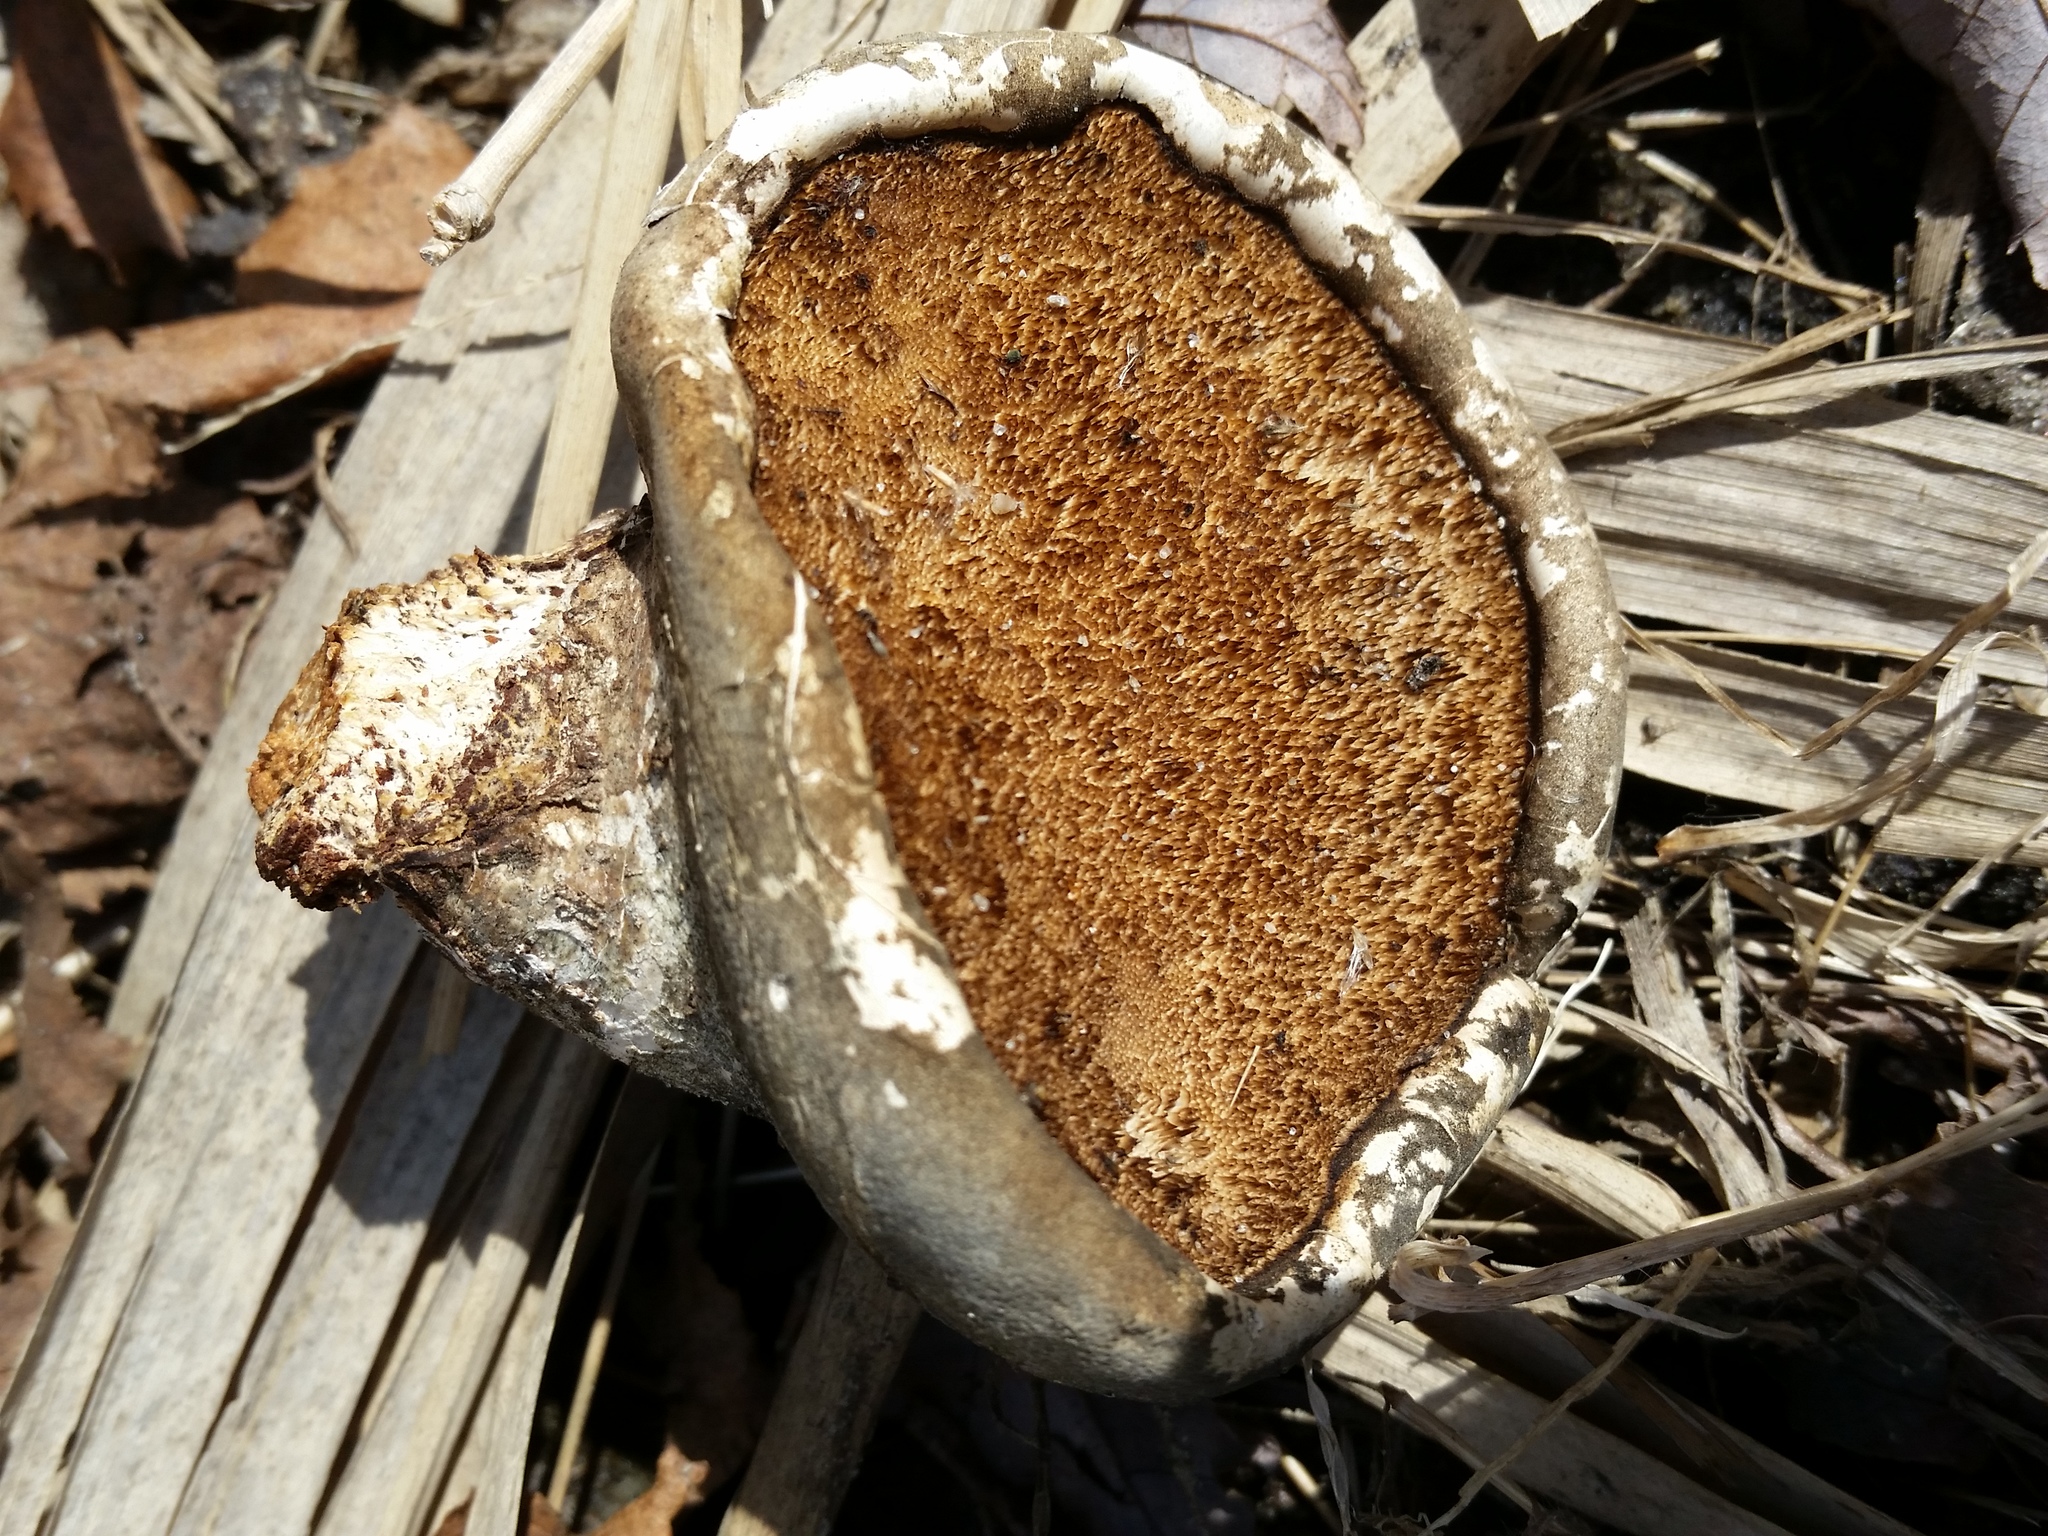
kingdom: Fungi
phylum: Basidiomycota
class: Agaricomycetes
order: Polyporales
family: Fomitopsidaceae
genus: Fomitopsis
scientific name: Fomitopsis betulina
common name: Birch polypore
